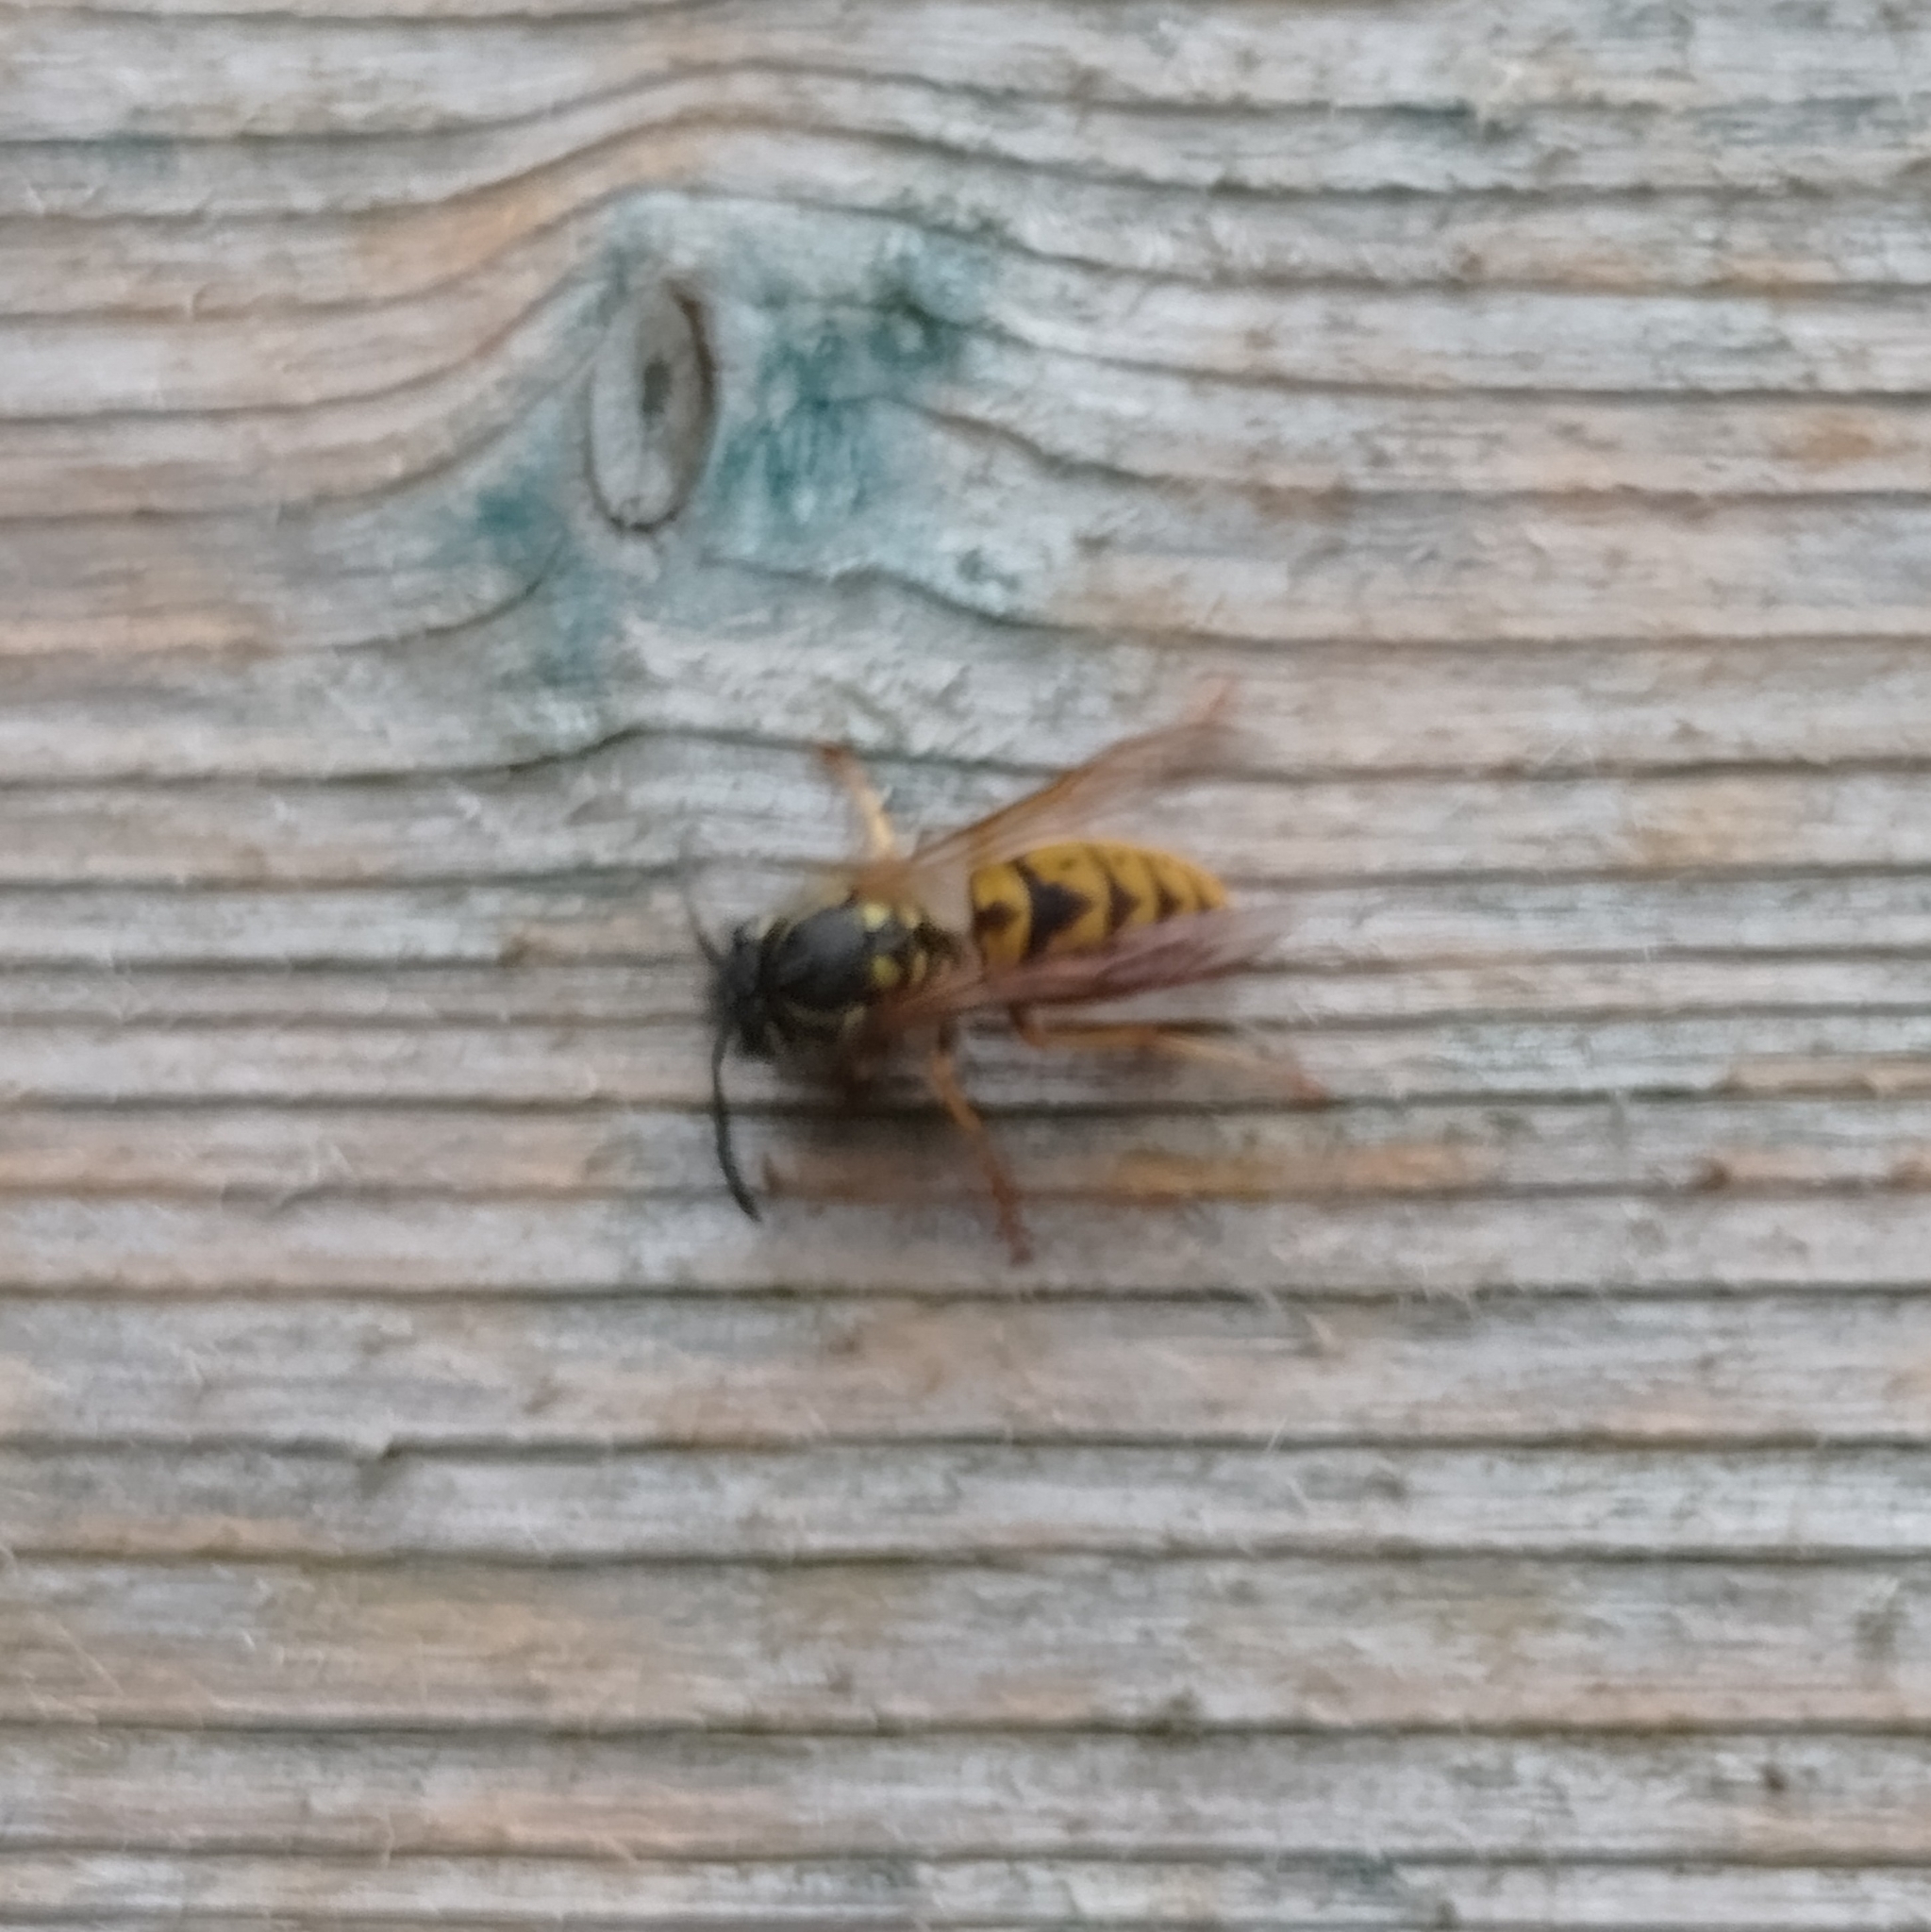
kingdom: Animalia
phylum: Arthropoda
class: Insecta
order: Hymenoptera
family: Vespidae
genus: Vespula
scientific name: Vespula germanica
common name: German wasp
